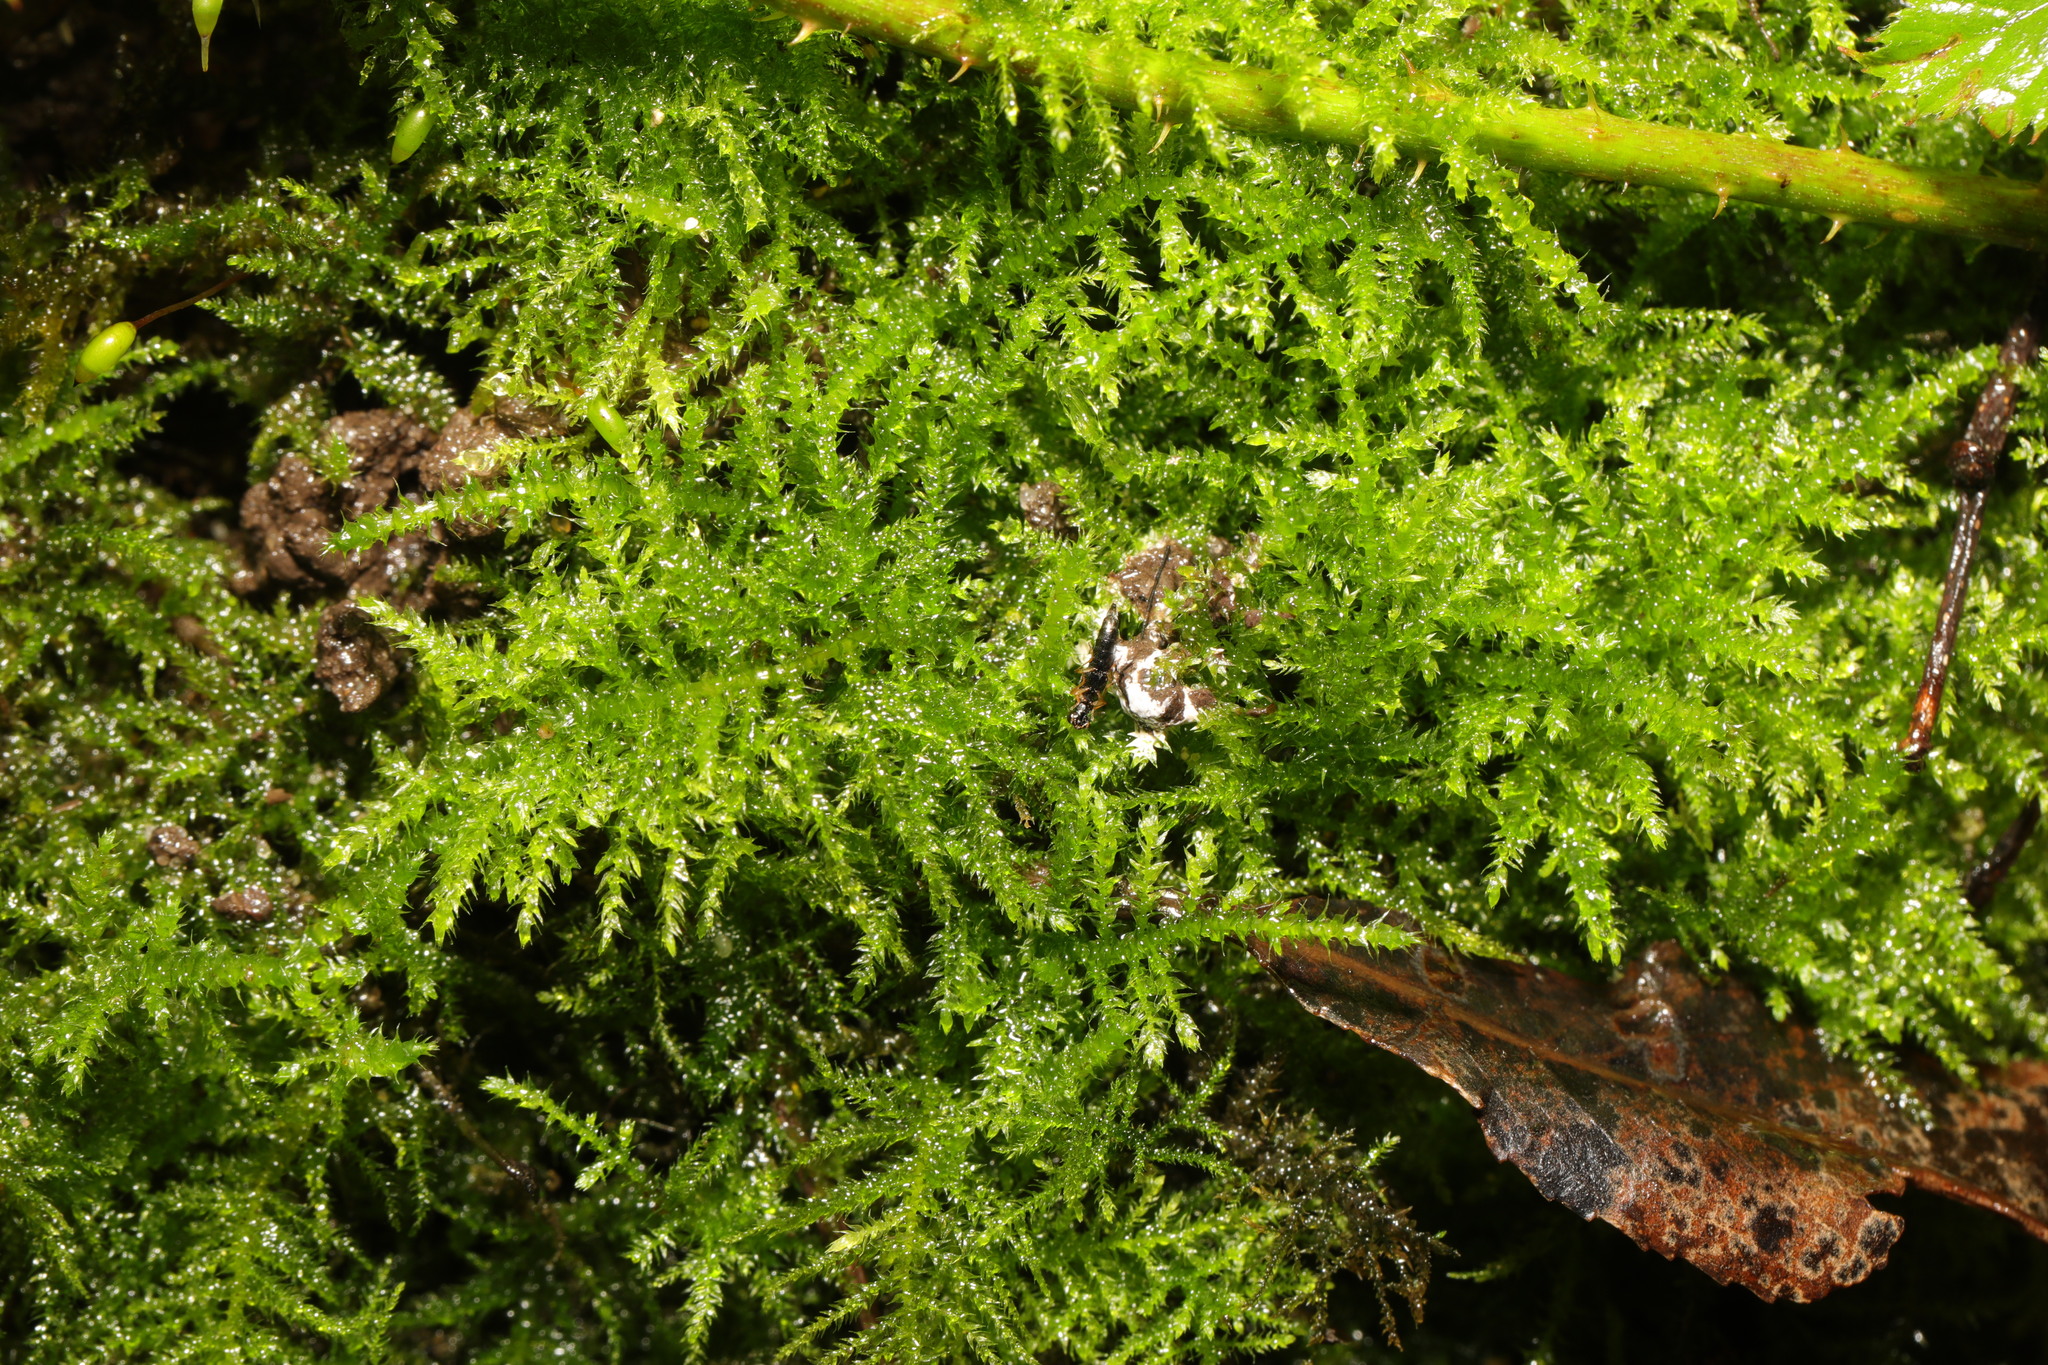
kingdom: Plantae
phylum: Bryophyta
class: Bryopsida
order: Hypnales
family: Brachytheciaceae
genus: Kindbergia
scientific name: Kindbergia praelonga
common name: Slender beaked moss
